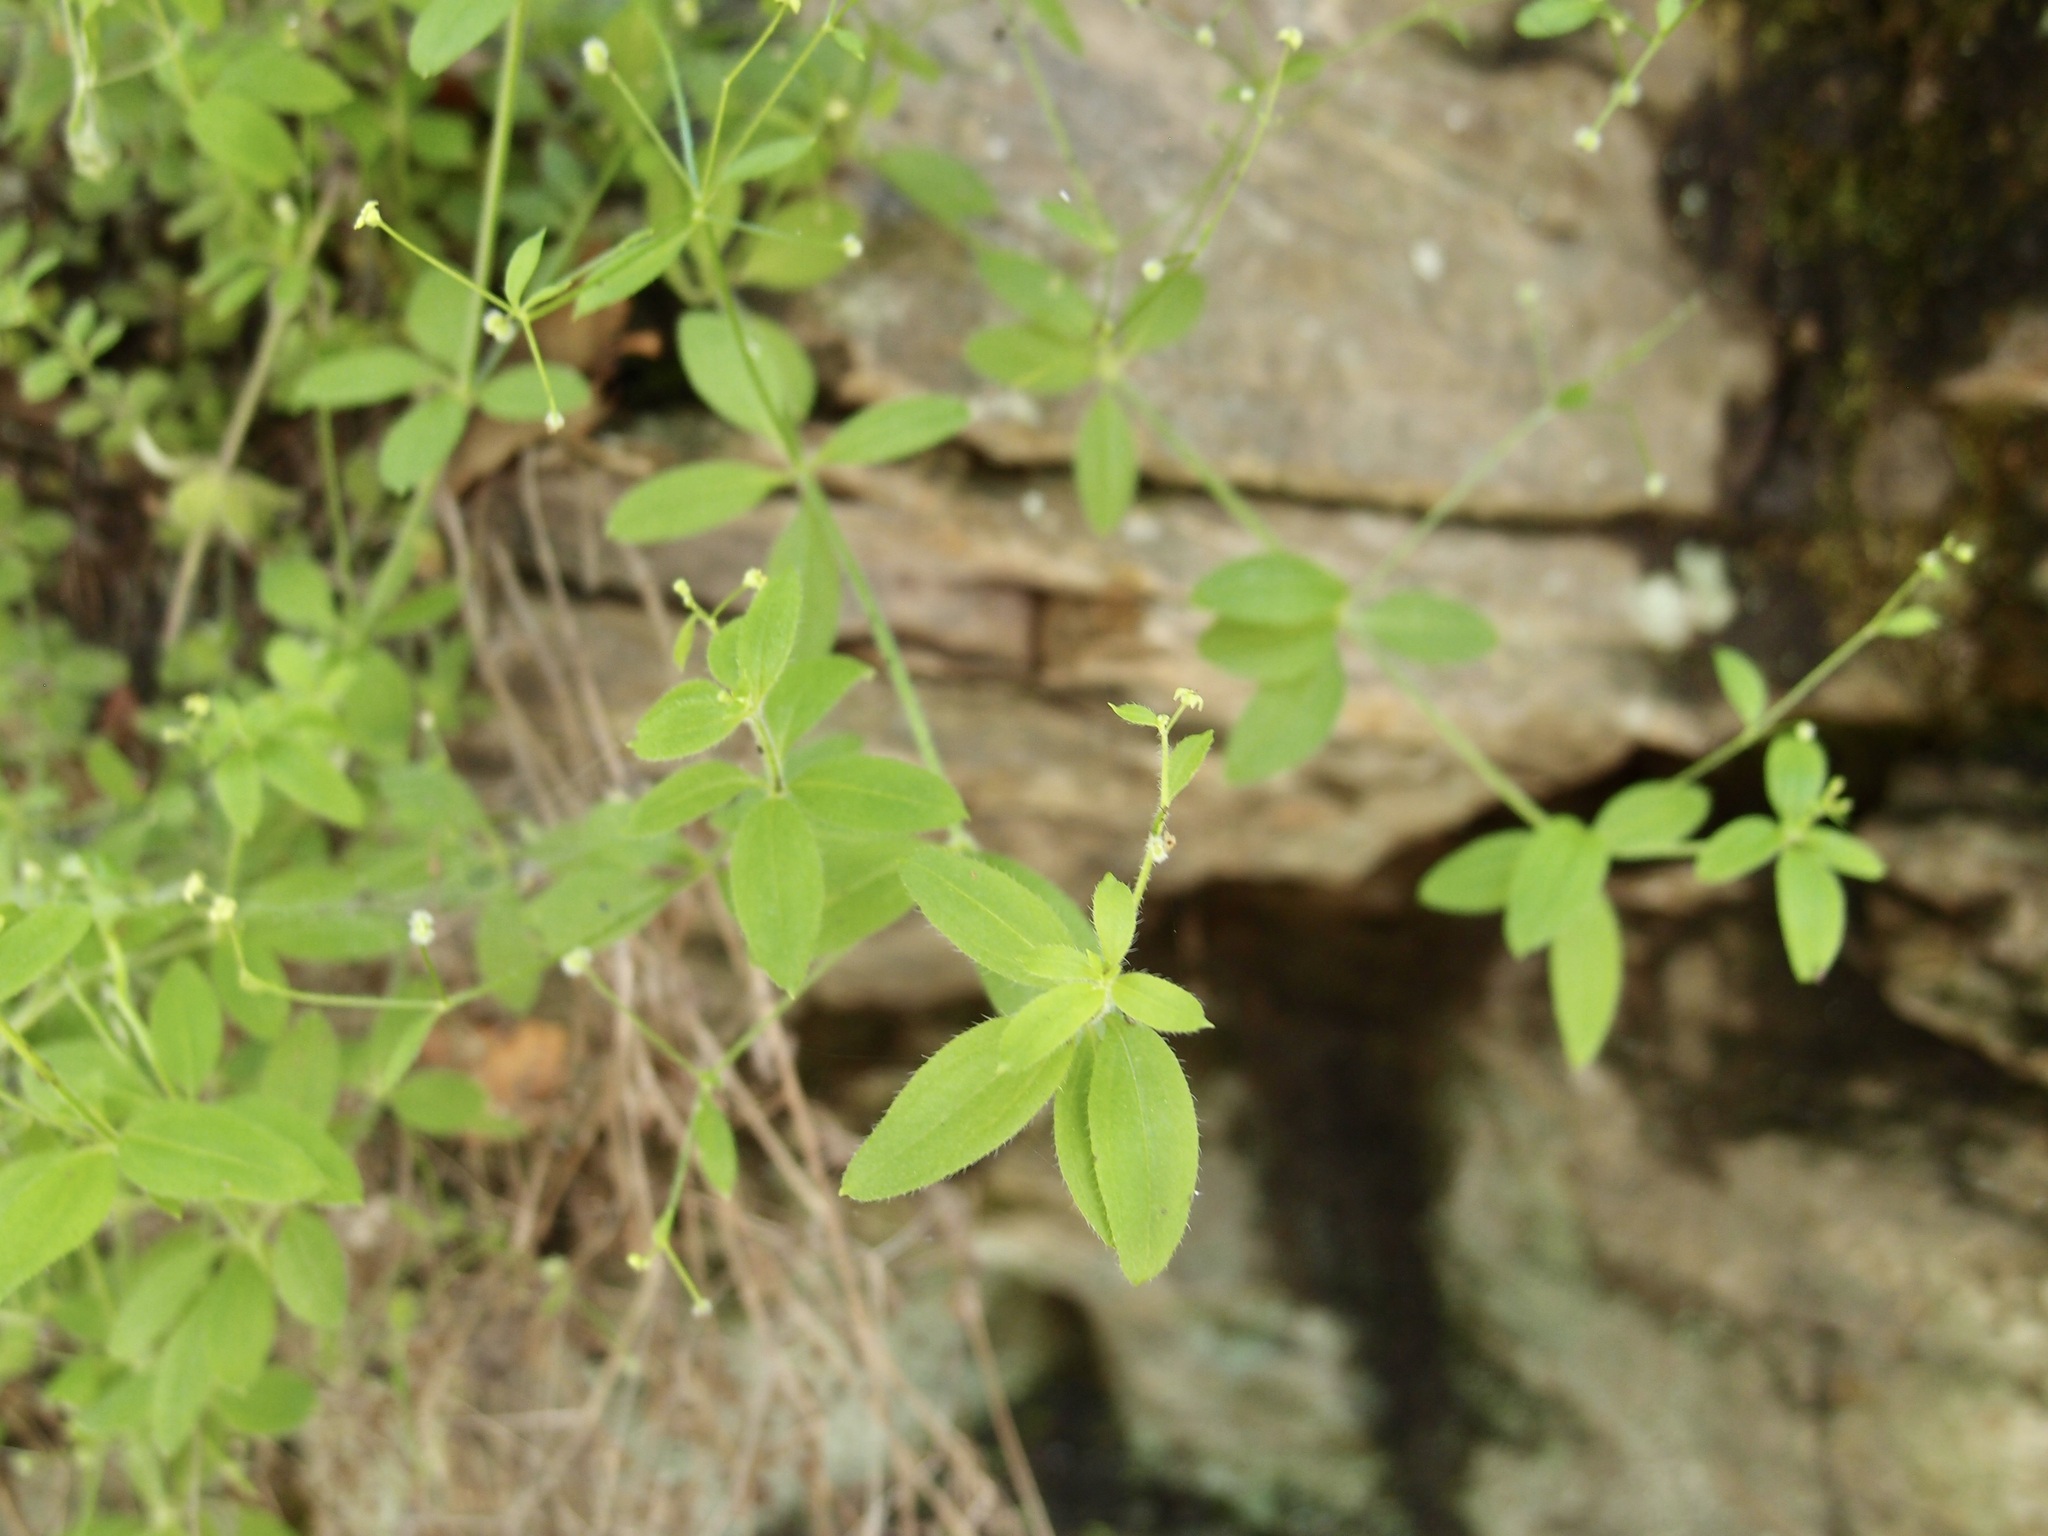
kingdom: Plantae
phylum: Tracheophyta
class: Magnoliopsida
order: Gentianales
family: Rubiaceae
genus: Galium
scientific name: Galium uncinulatum
